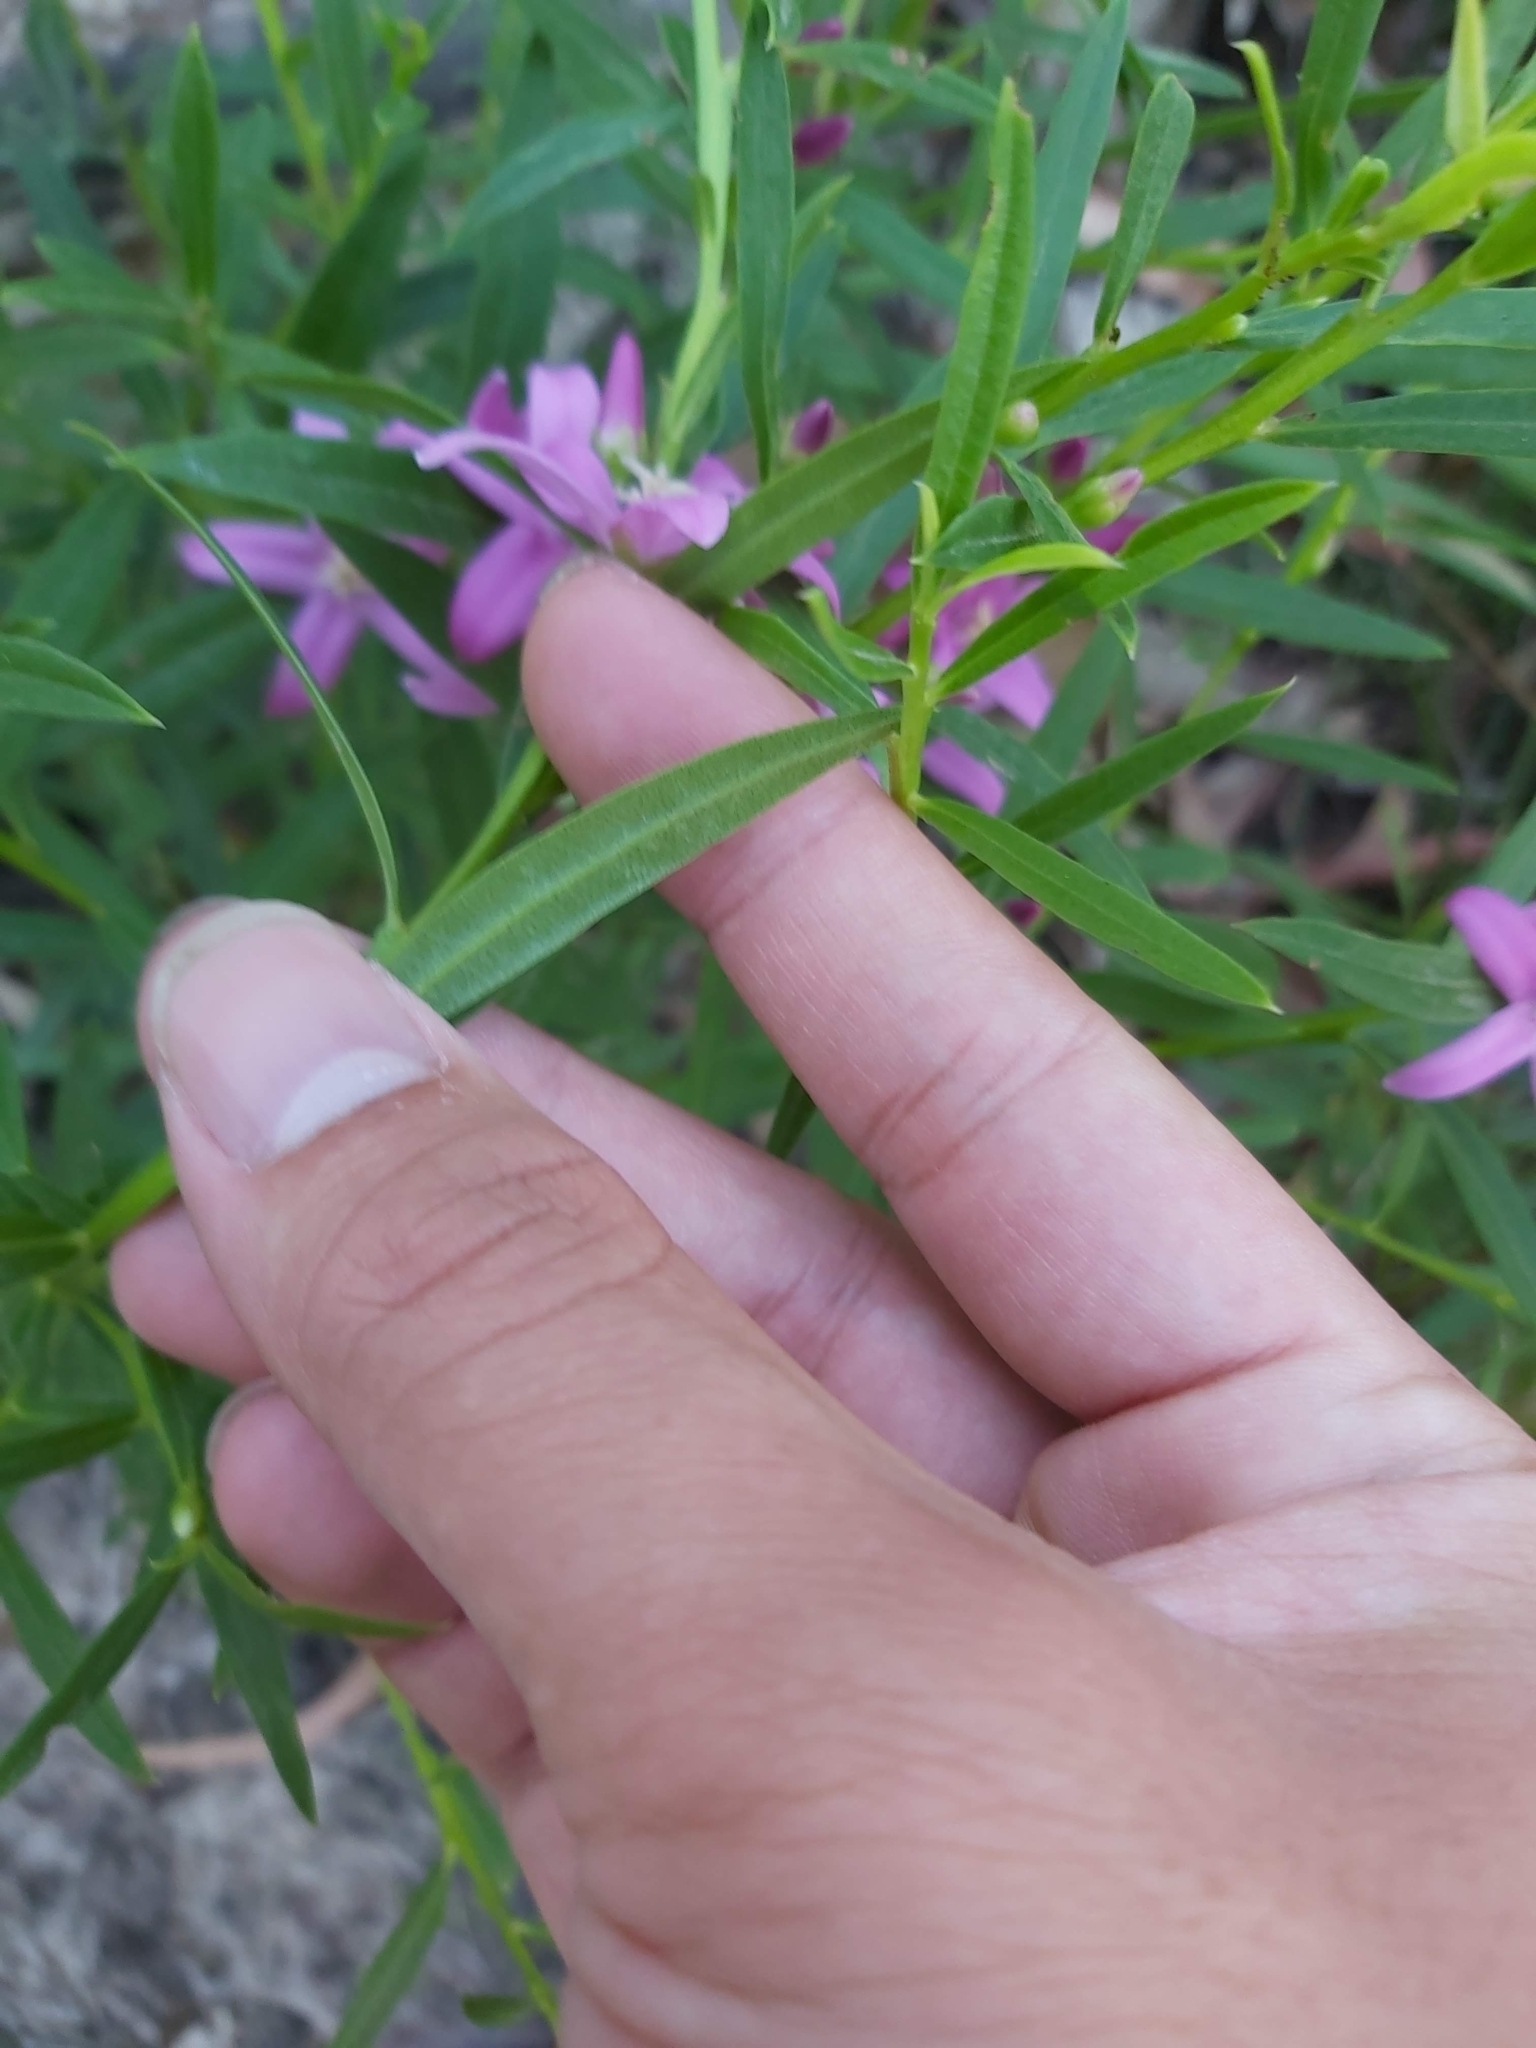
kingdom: Plantae
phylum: Tracheophyta
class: Magnoliopsida
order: Sapindales
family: Rutaceae
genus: Crowea
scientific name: Crowea saligna
